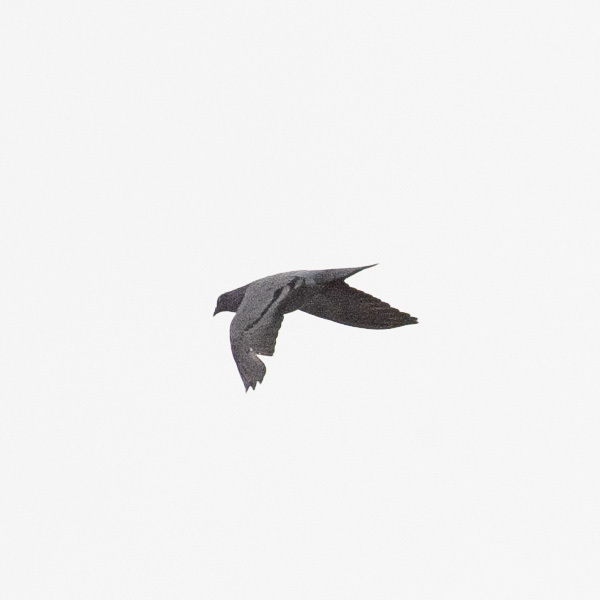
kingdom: Animalia
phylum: Chordata
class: Aves
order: Columbiformes
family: Columbidae
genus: Columba
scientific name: Columba livia
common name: Rock pigeon
